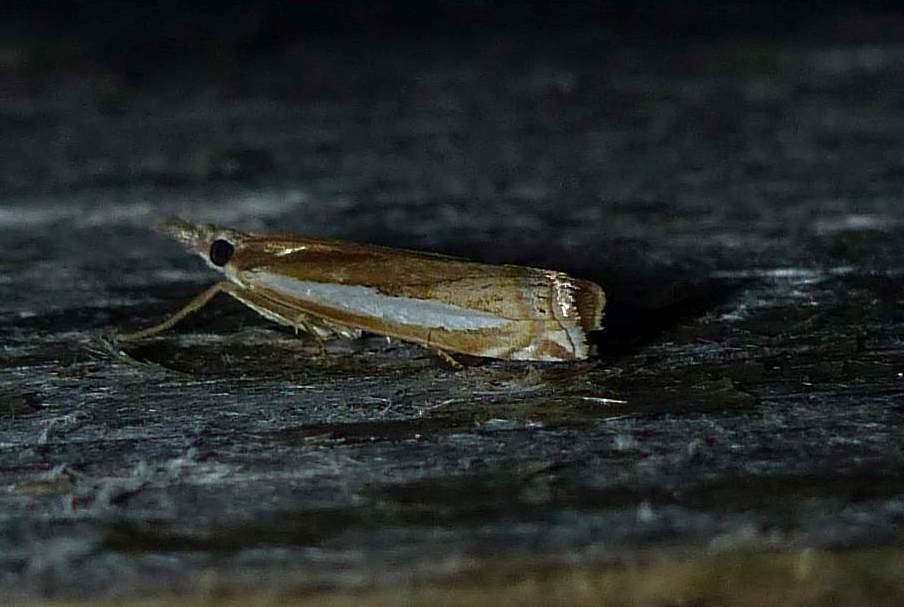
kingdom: Animalia
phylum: Arthropoda
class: Insecta
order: Lepidoptera
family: Crambidae
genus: Crambus
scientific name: Crambus praefectellus
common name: Common grass-veneer
